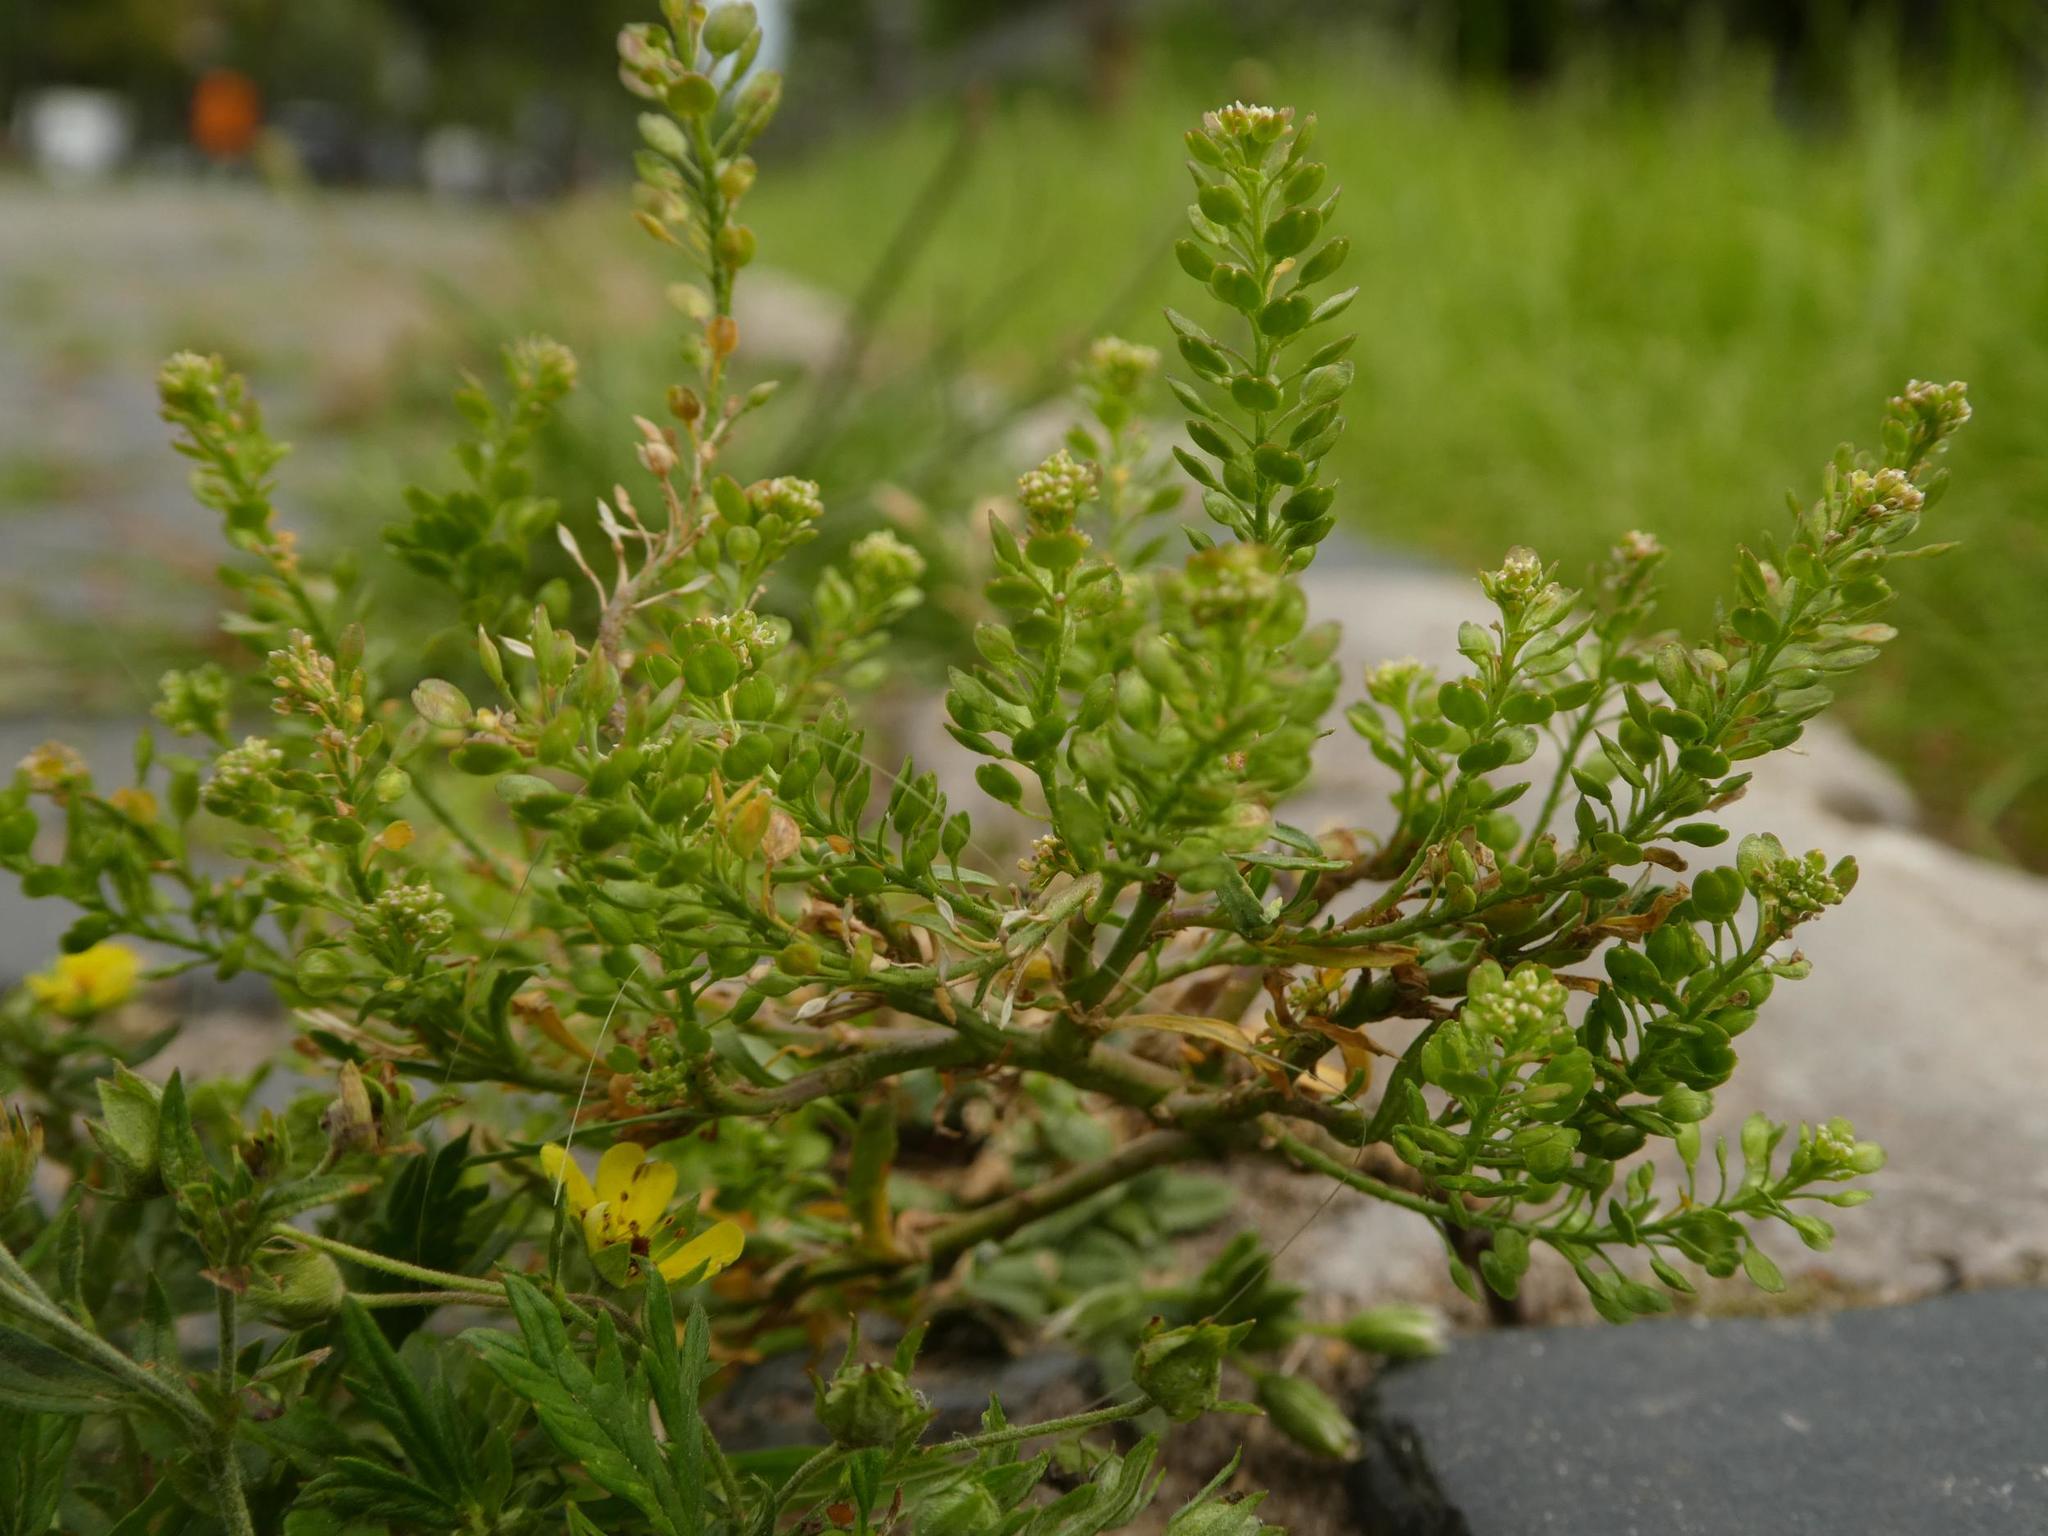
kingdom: Plantae
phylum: Tracheophyta
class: Magnoliopsida
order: Brassicales
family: Brassicaceae
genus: Lepidium
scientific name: Lepidium ruderale
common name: Narrow-leaved pepperwort
